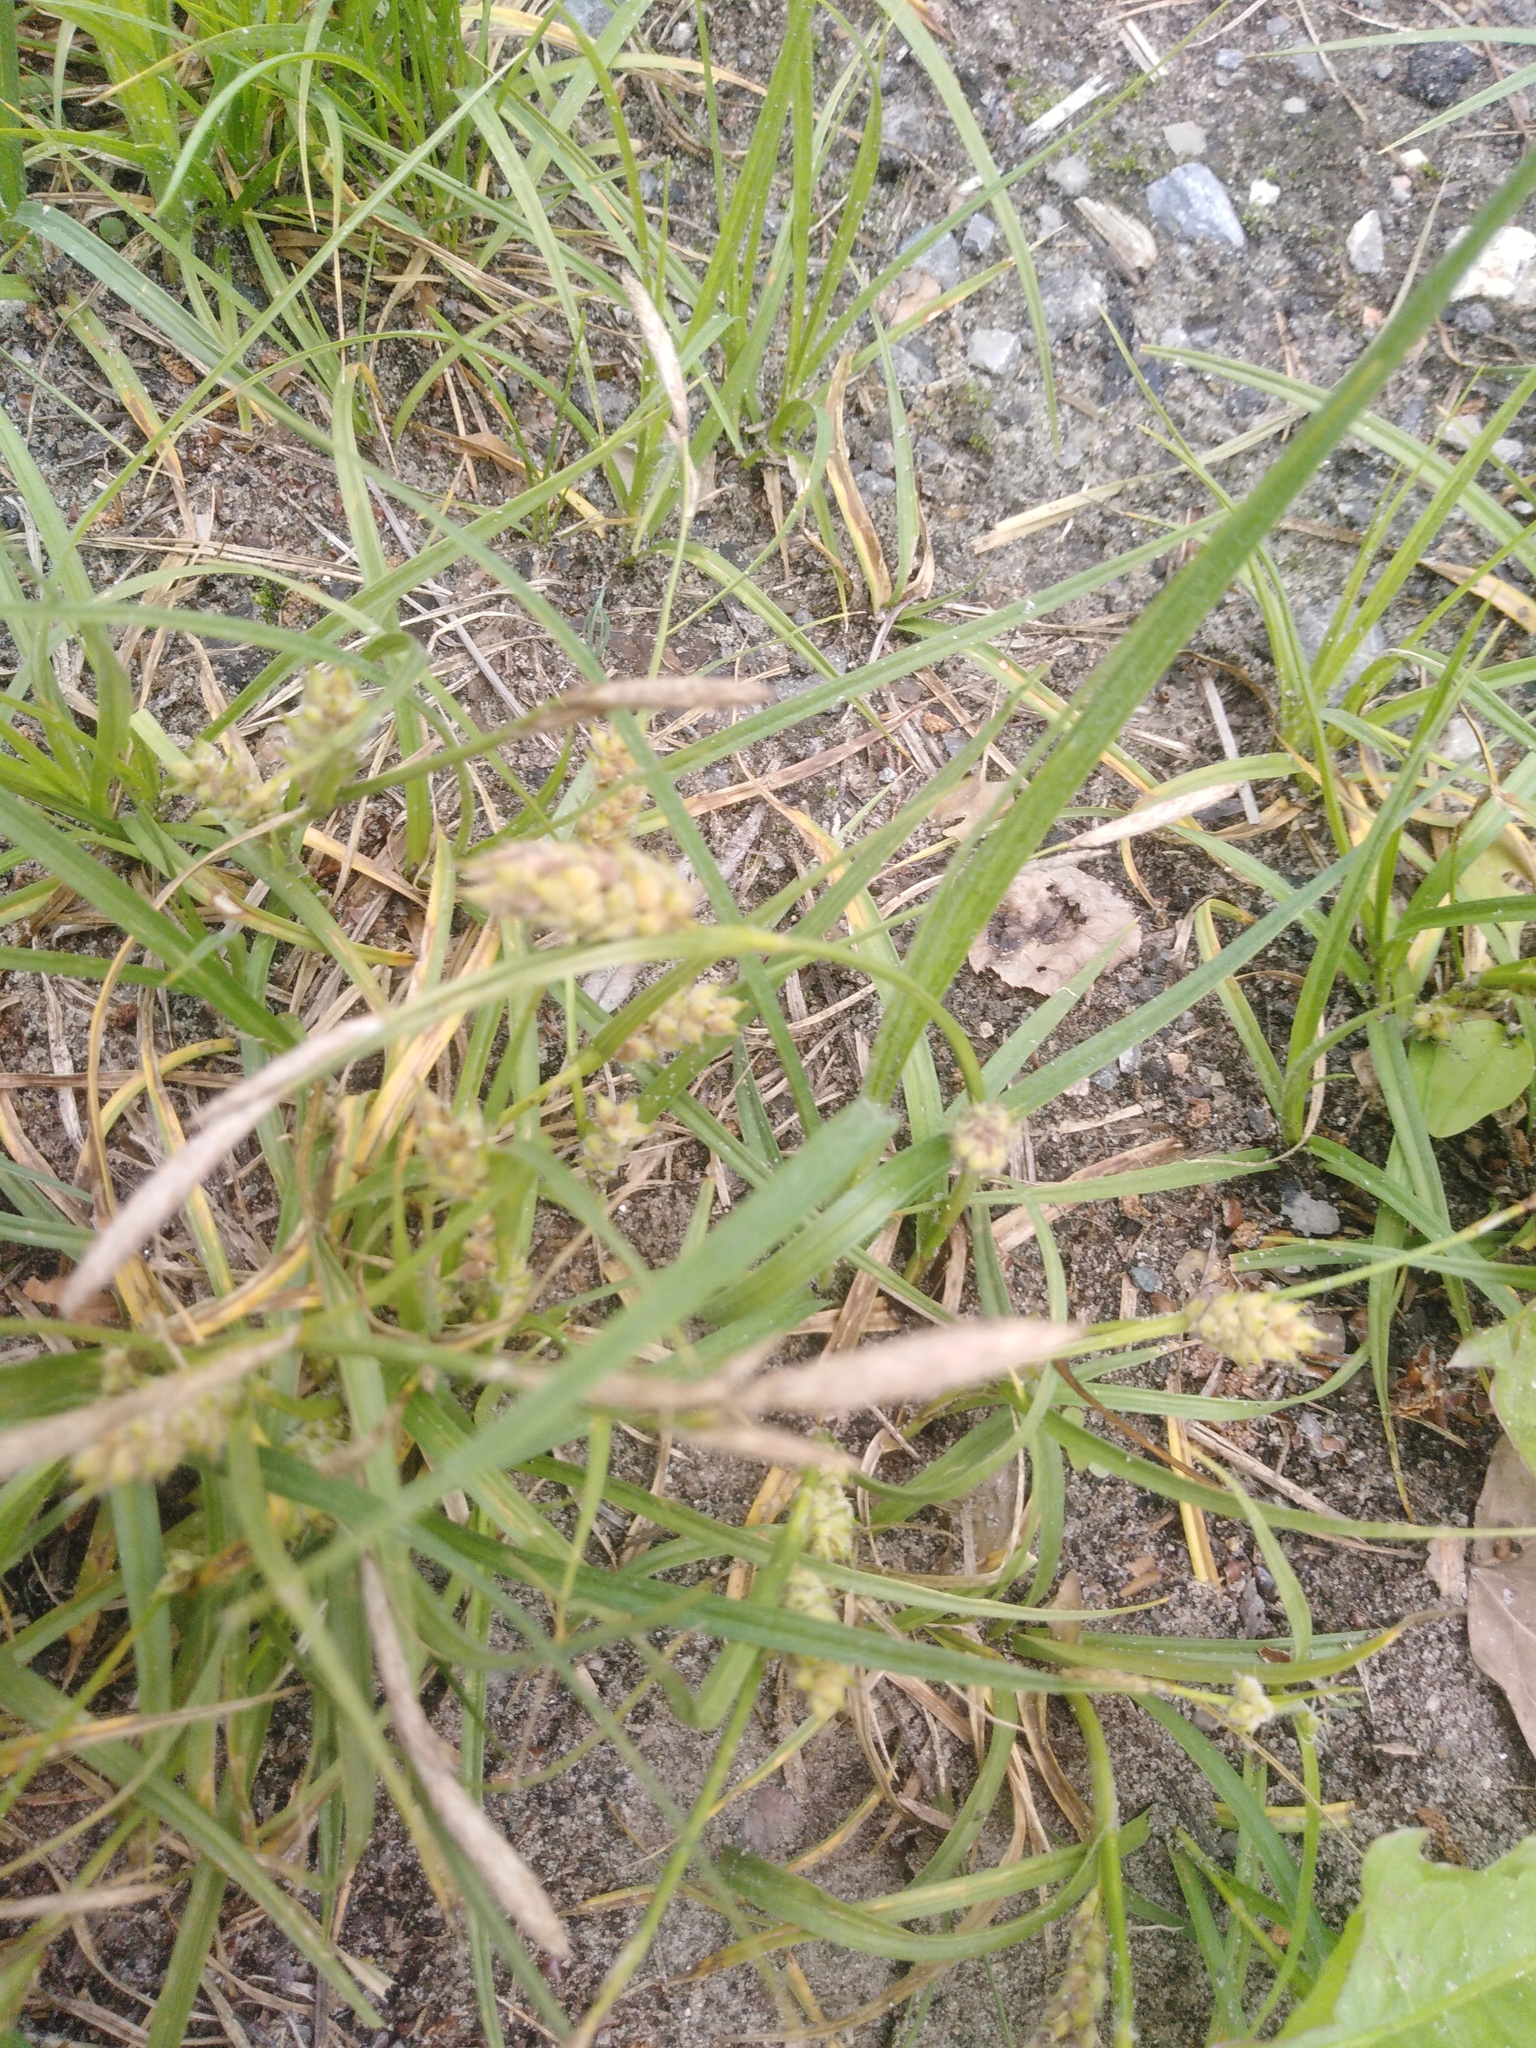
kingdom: Plantae
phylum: Tracheophyta
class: Liliopsida
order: Poales
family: Cyperaceae
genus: Carex
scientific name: Carex hirta
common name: Hairy sedge
